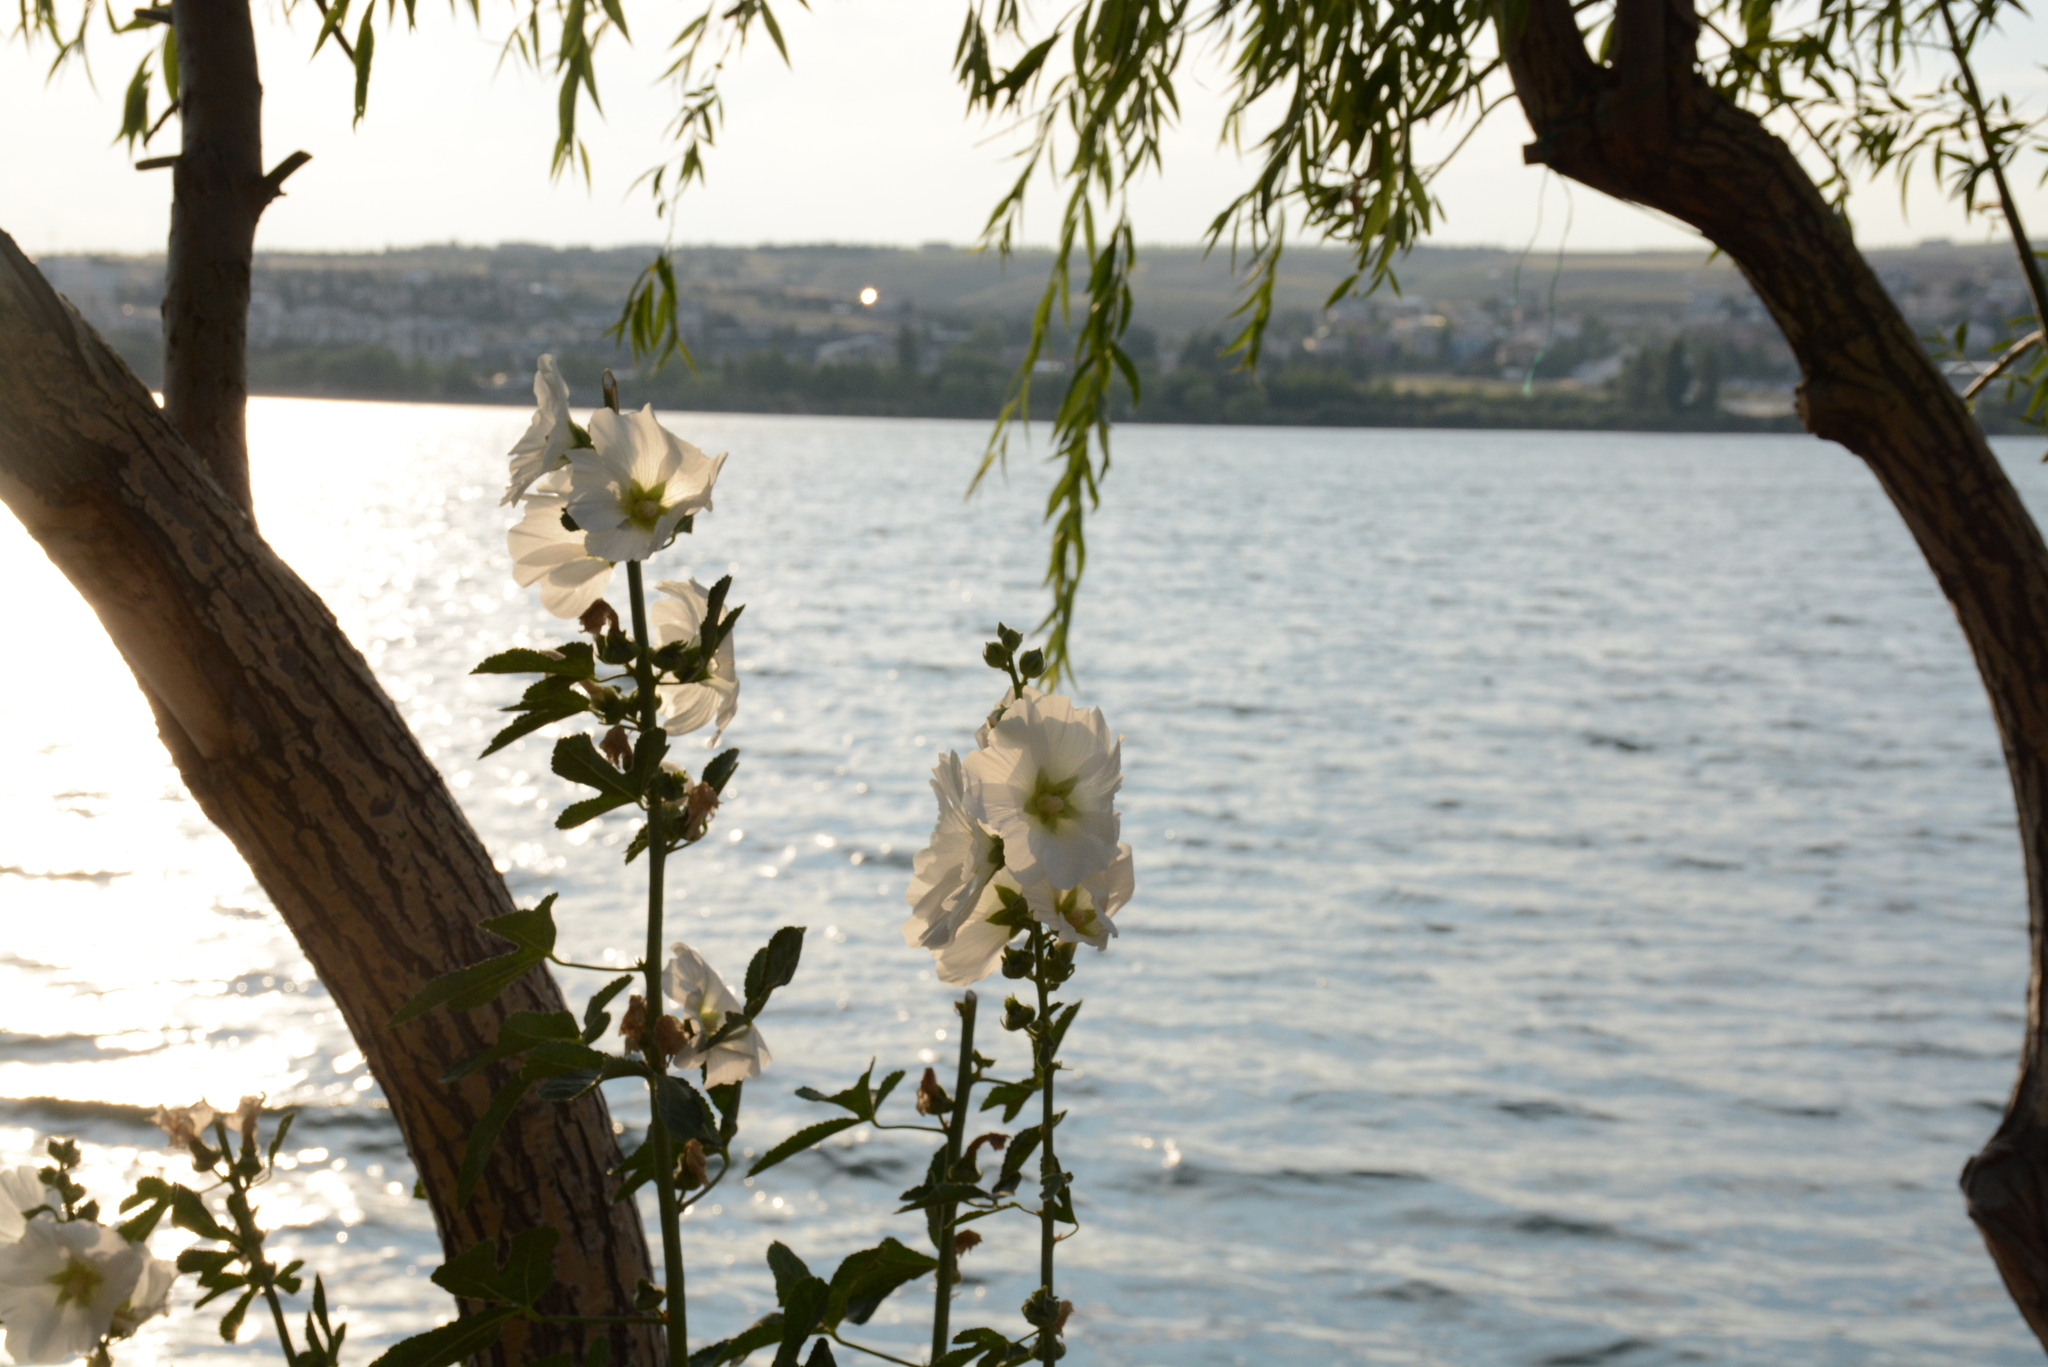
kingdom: Plantae
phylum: Tracheophyta
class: Magnoliopsida
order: Malvales
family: Malvaceae
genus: Alcea
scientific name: Alcea rosea
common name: Hollyhock
